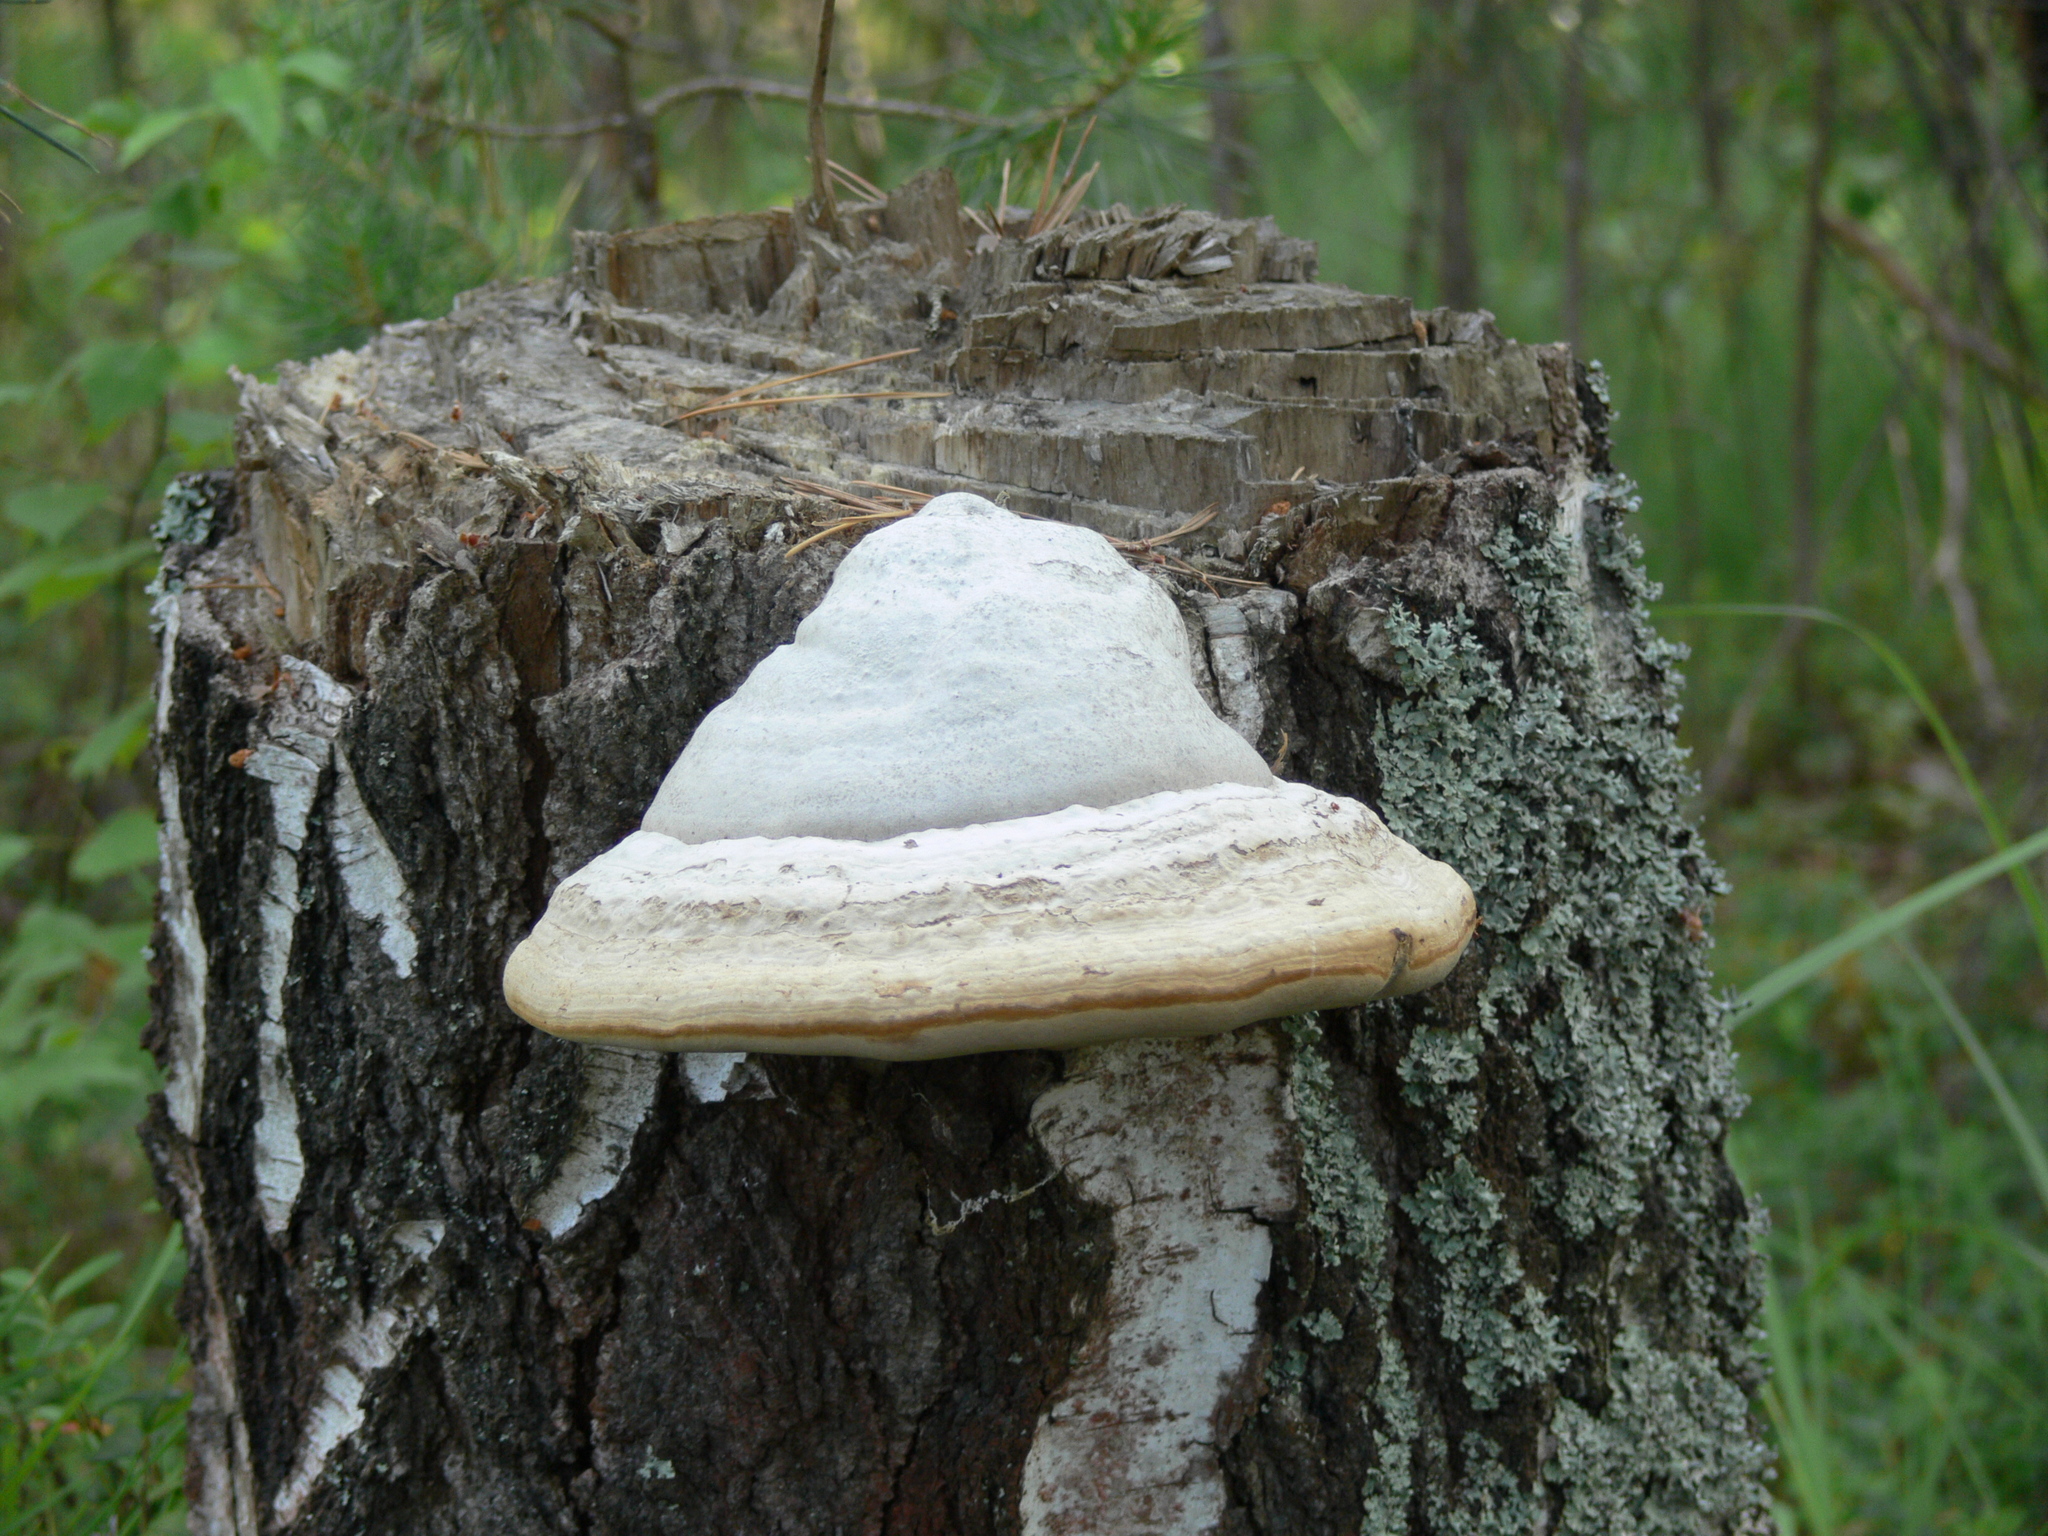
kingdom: Fungi
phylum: Basidiomycota
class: Agaricomycetes
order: Polyporales
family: Polyporaceae
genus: Fomes
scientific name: Fomes fomentarius
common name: Hoof fungus
